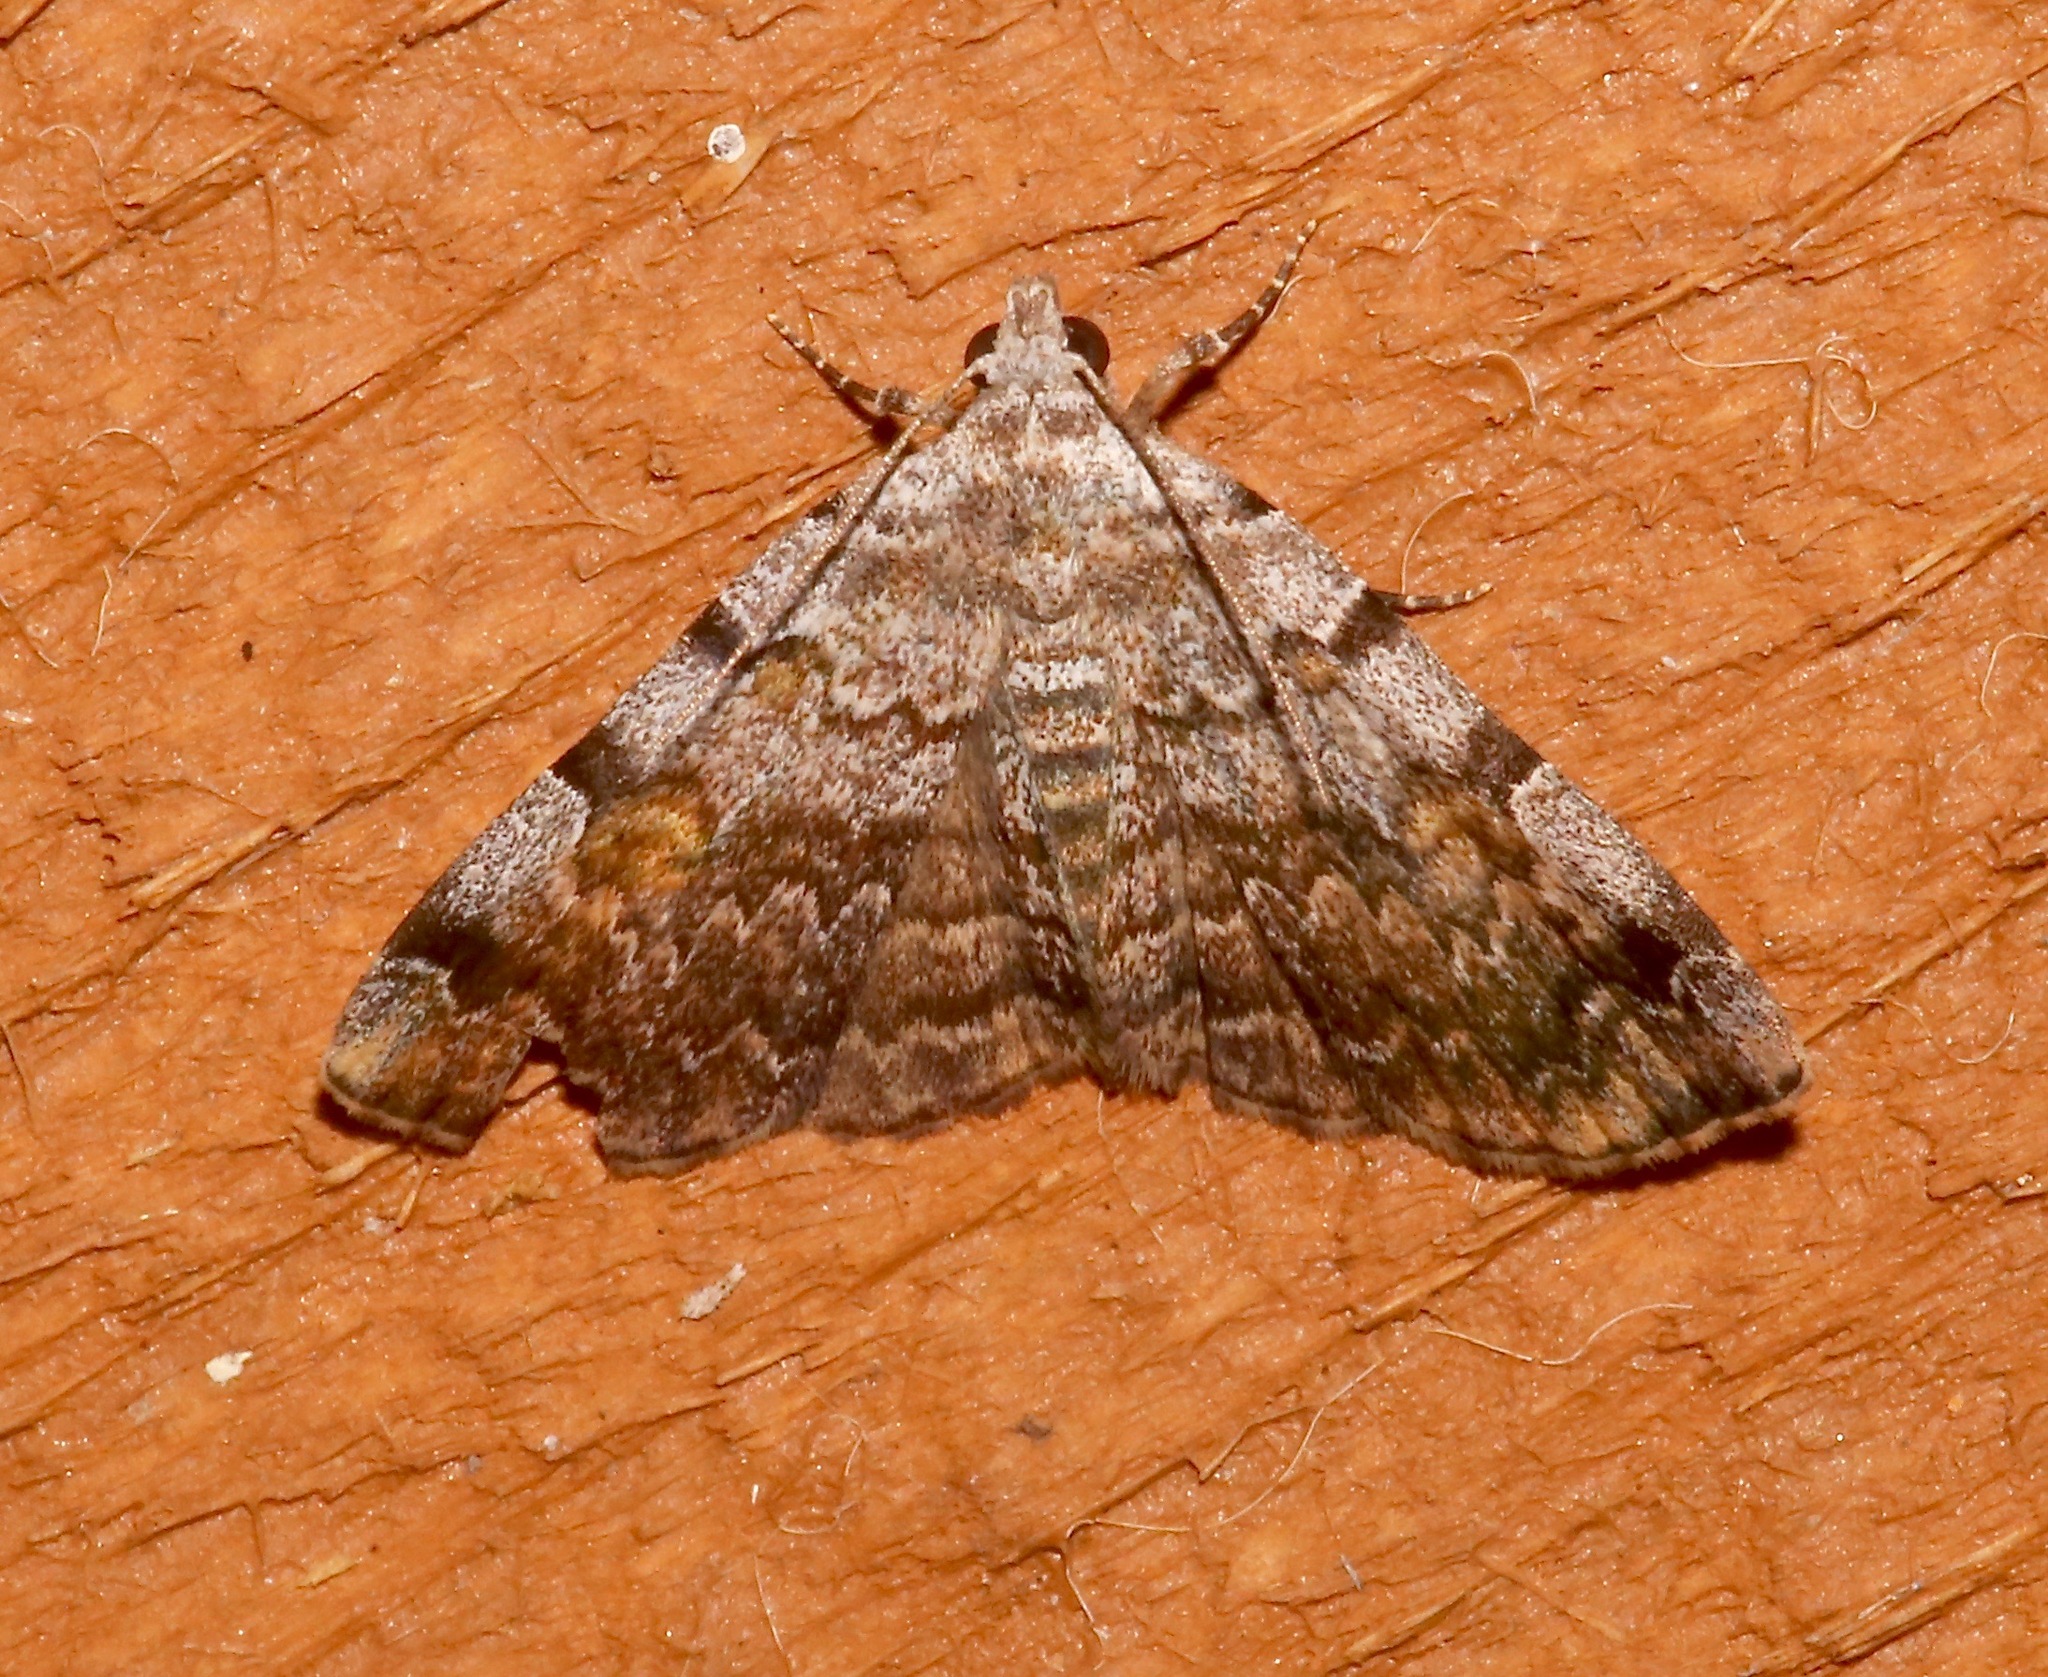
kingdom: Animalia
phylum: Arthropoda
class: Insecta
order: Lepidoptera
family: Erebidae
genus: Idia
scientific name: Idia americalis
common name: American idia moth
